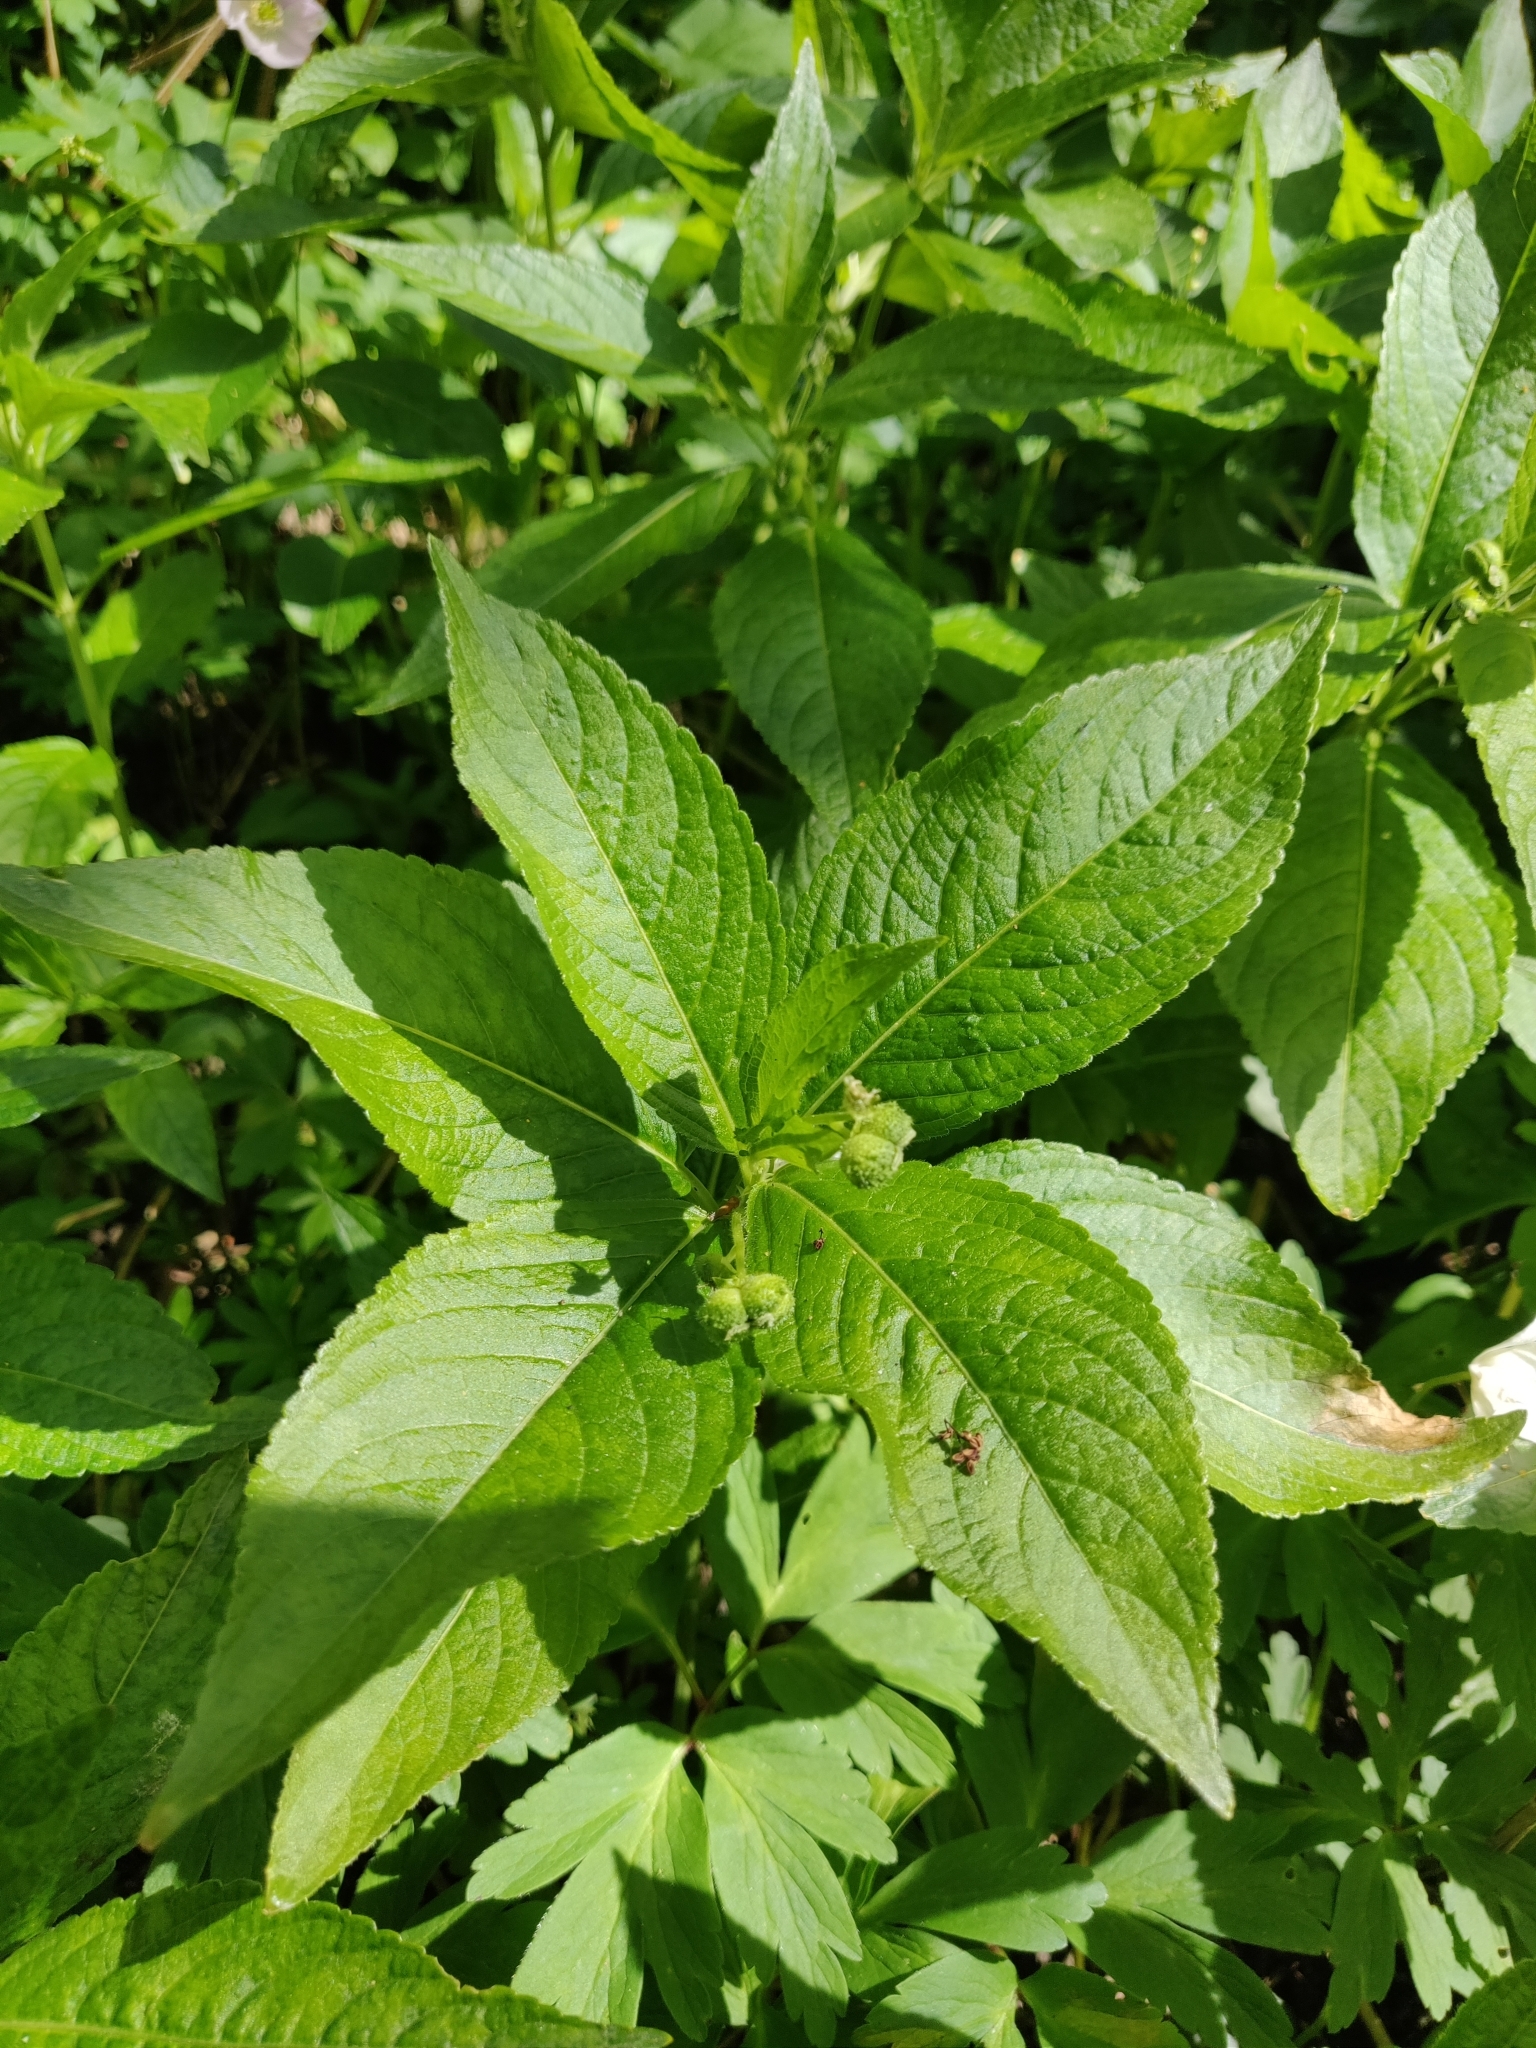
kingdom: Plantae
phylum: Tracheophyta
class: Magnoliopsida
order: Malpighiales
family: Euphorbiaceae
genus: Mercurialis
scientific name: Mercurialis perennis
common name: Dog mercury
